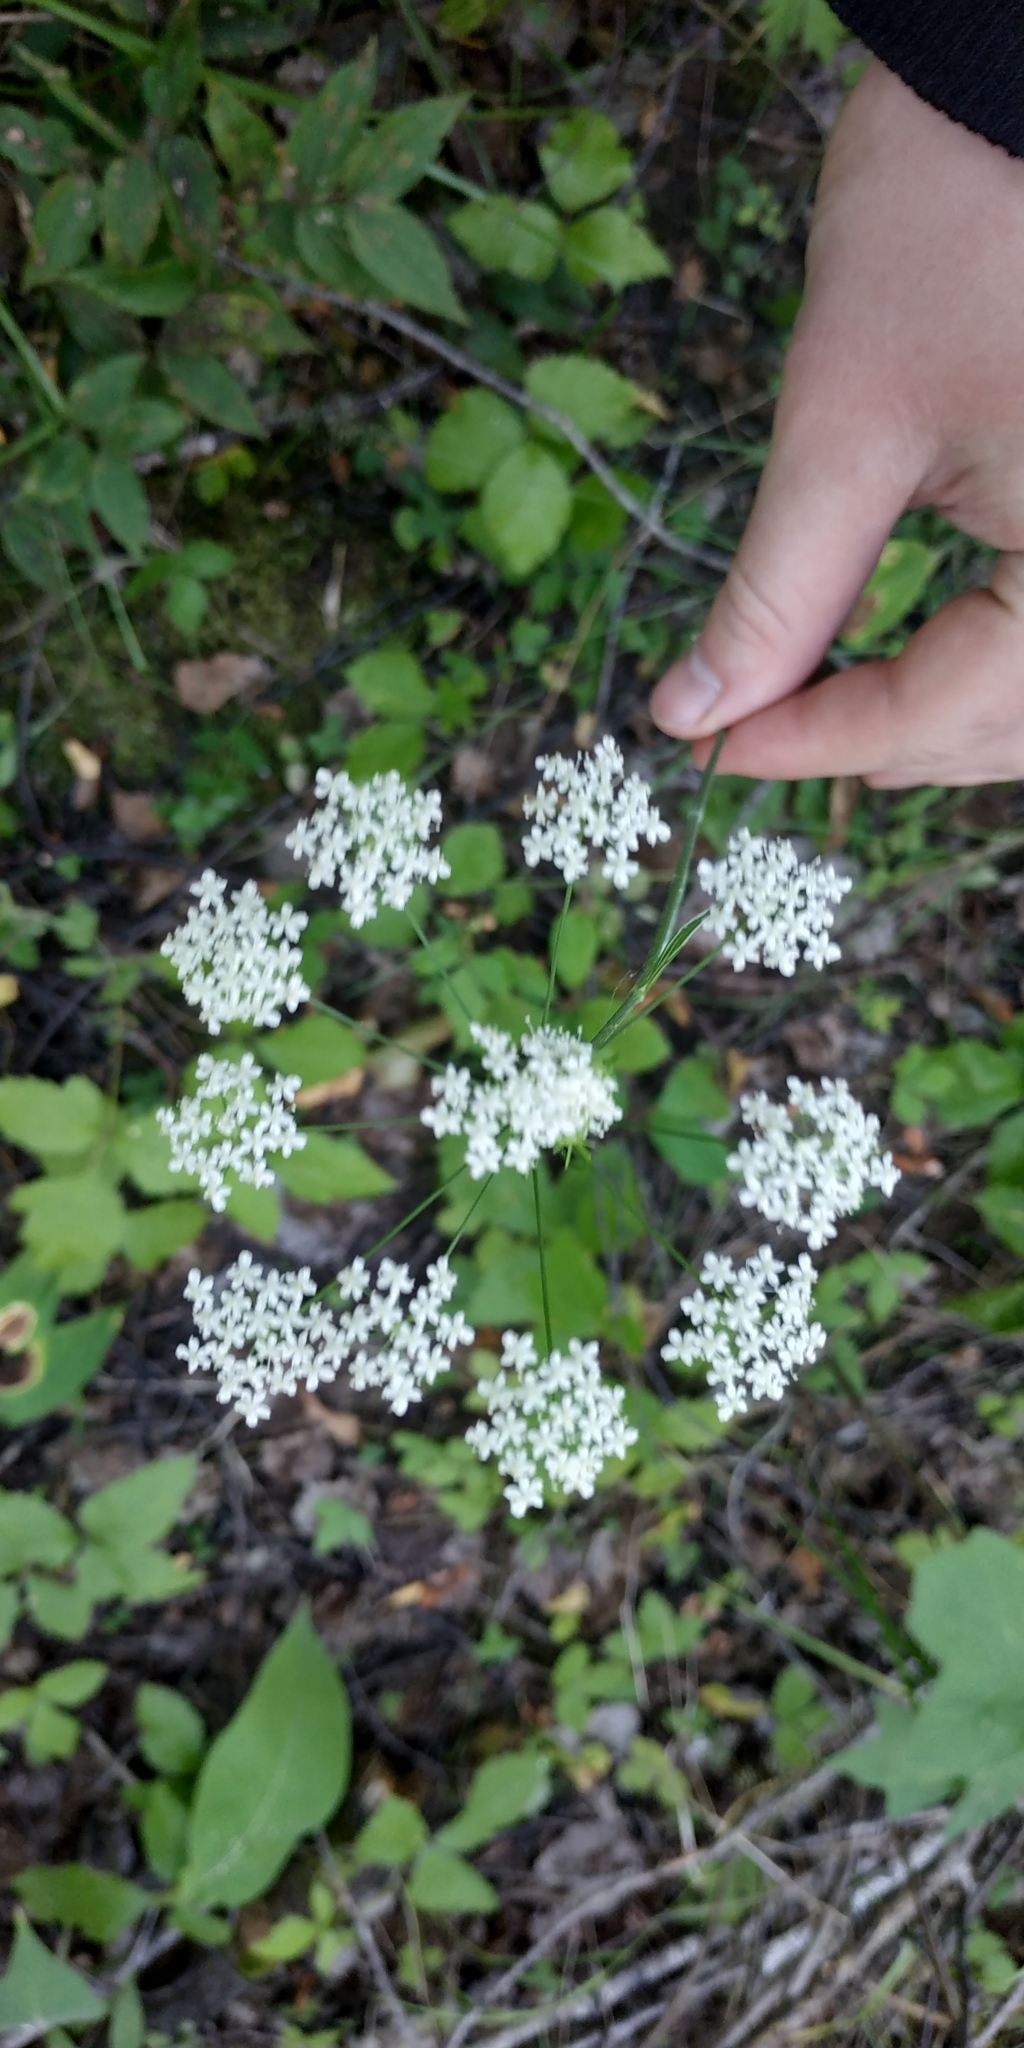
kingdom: Plantae
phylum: Tracheophyta
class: Magnoliopsida
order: Apiales
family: Apiaceae
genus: Pimpinella
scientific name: Pimpinella saxifraga
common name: Burnet-saxifrage
